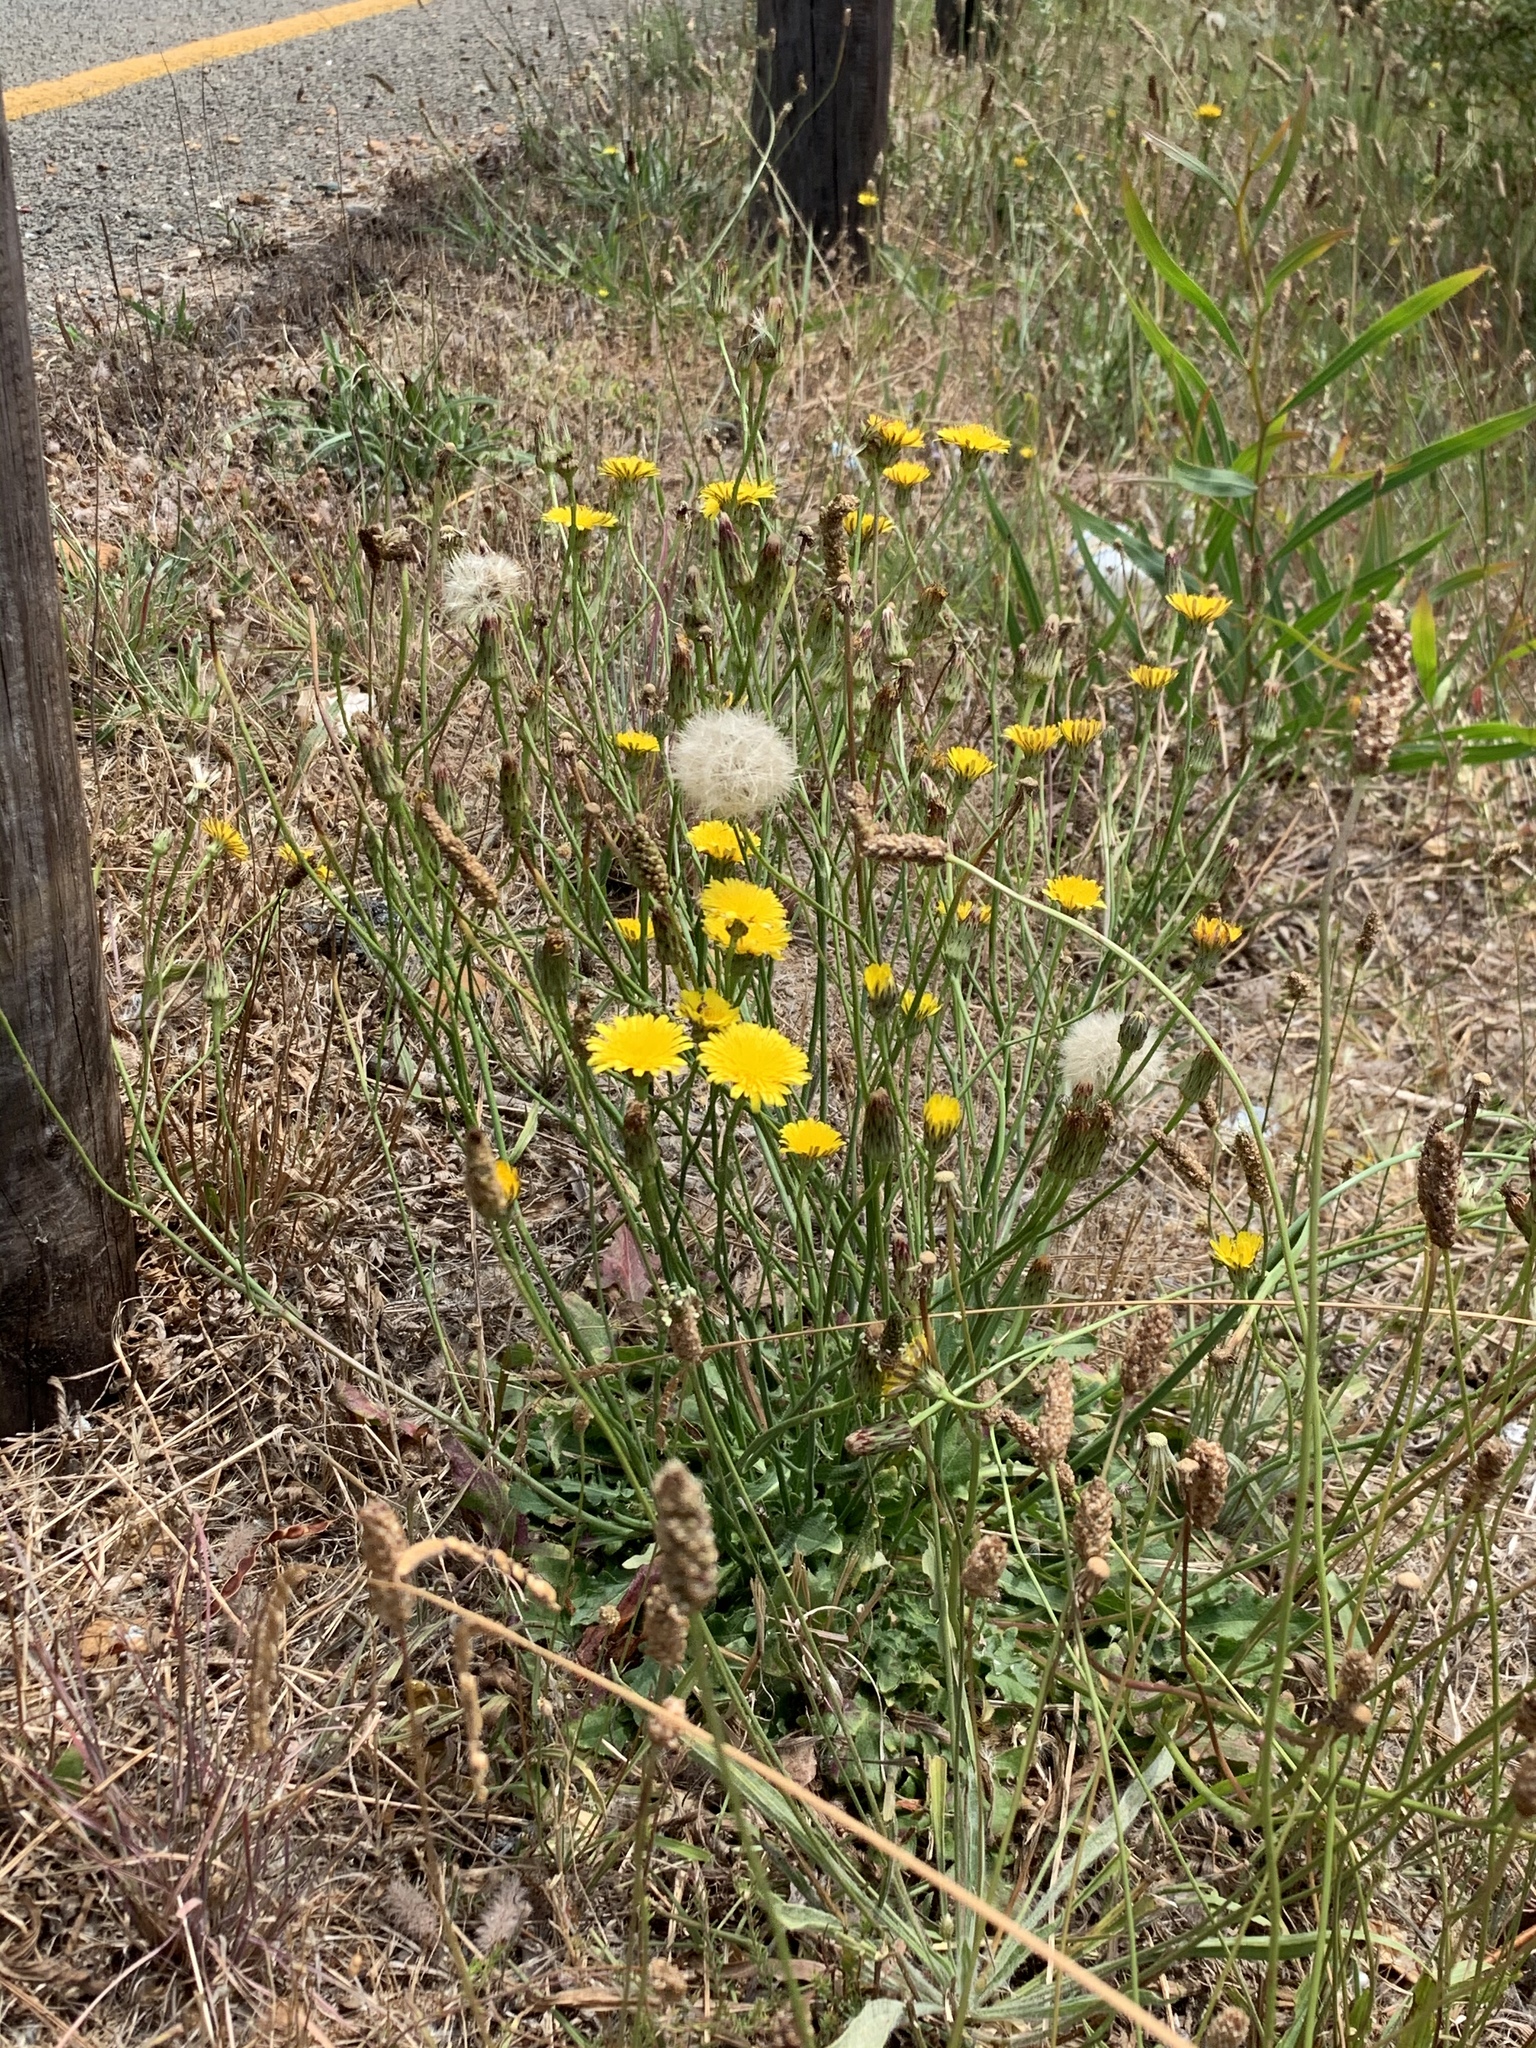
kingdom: Plantae
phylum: Tracheophyta
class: Magnoliopsida
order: Asterales
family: Asteraceae
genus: Hypochaeris
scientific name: Hypochaeris radicata
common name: Flatweed
